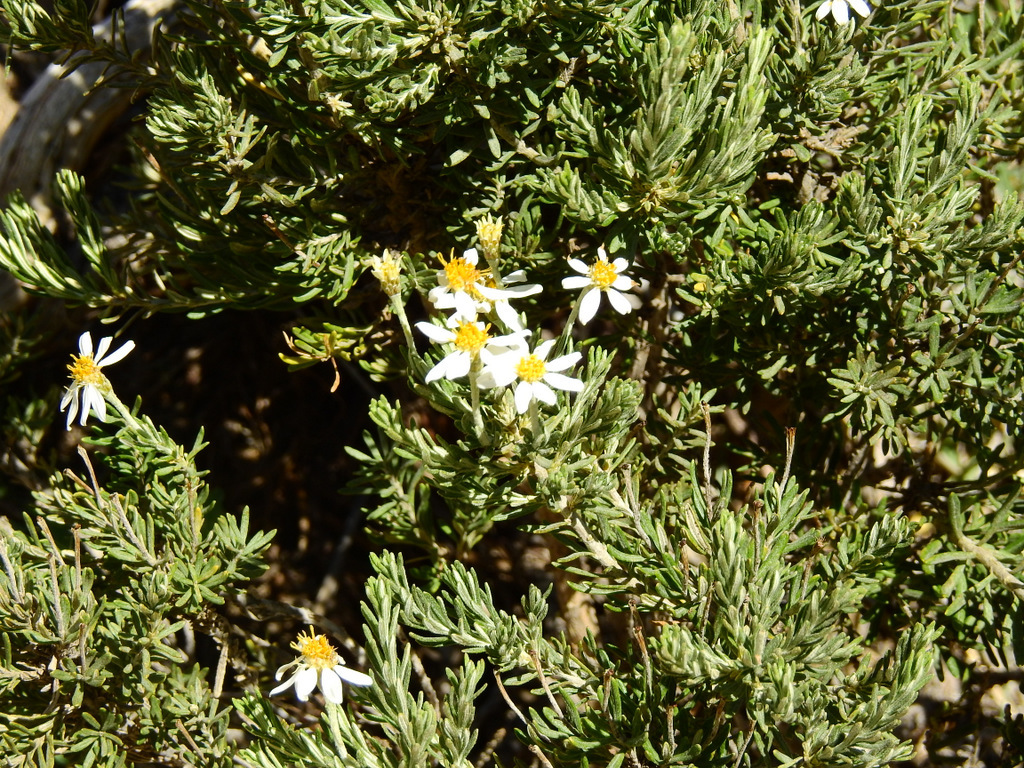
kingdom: Plantae
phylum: Tracheophyta
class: Magnoliopsida
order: Asterales
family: Asteraceae
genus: Chiliotrichum
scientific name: Chiliotrichum diffusum
